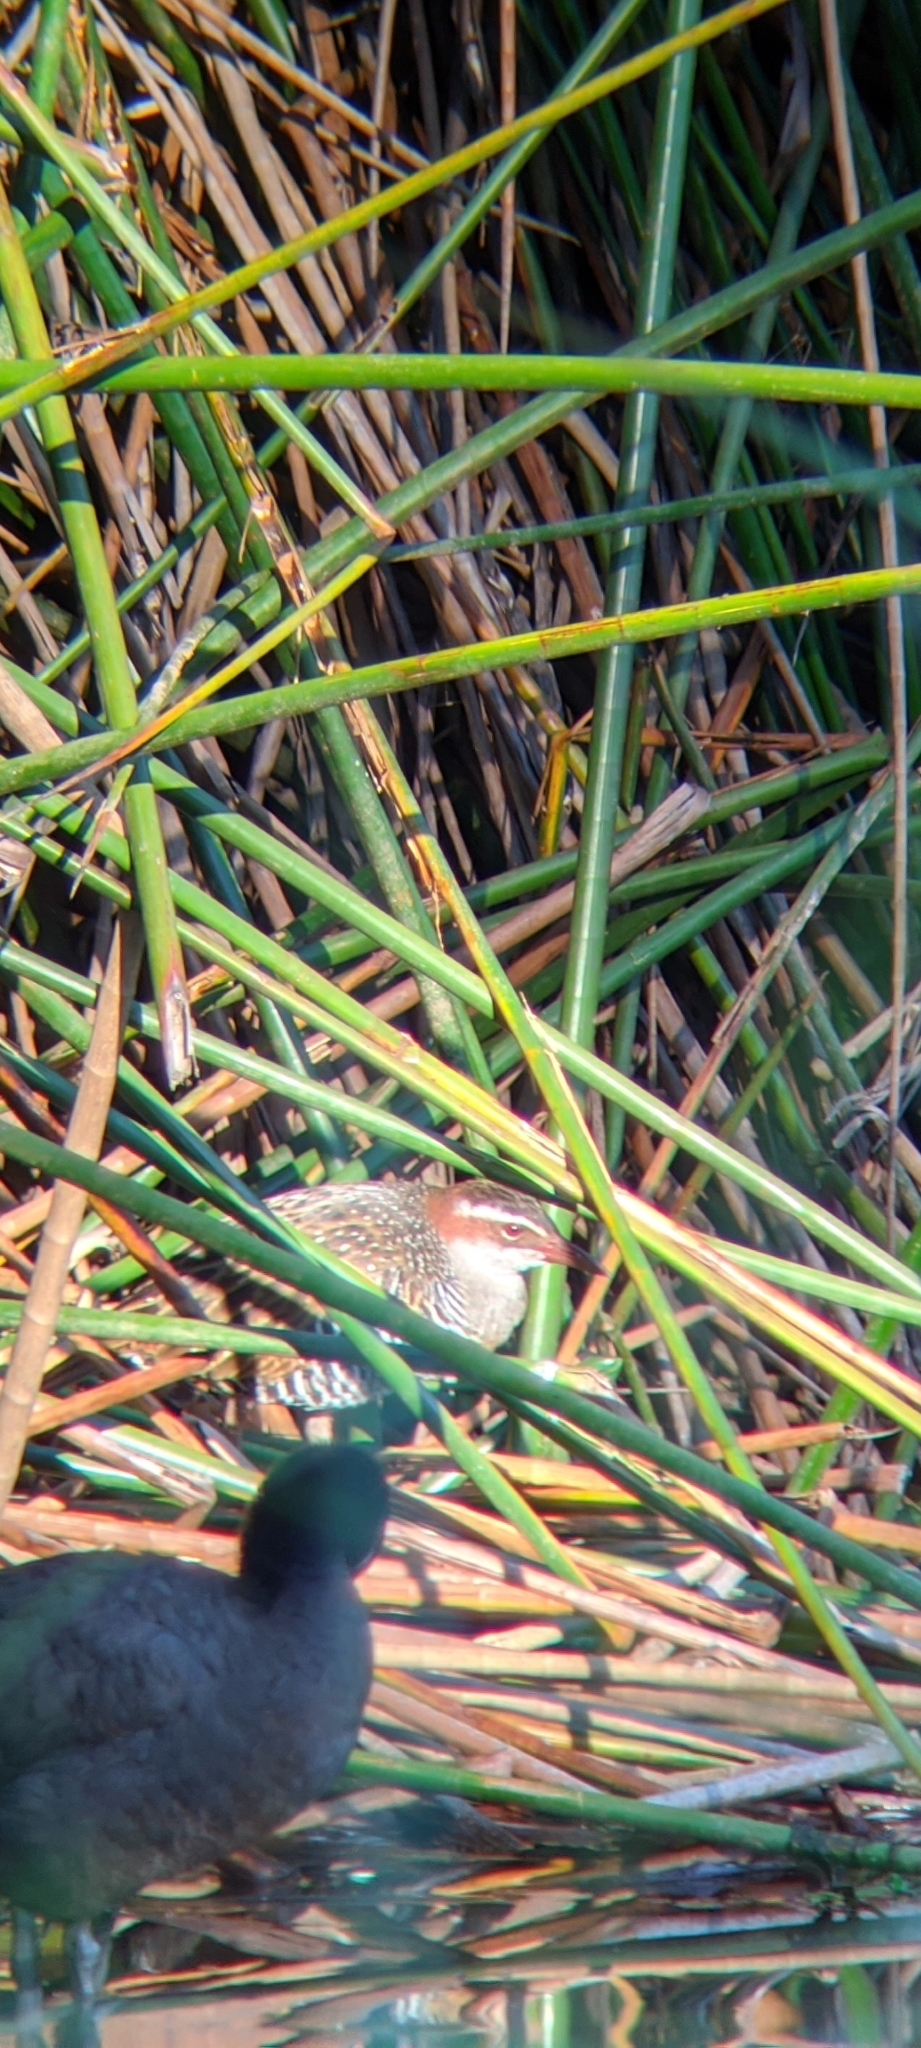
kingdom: Animalia
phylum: Chordata
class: Aves
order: Gruiformes
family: Rallidae
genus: Gallirallus
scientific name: Gallirallus philippensis
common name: Buff-banded rail
